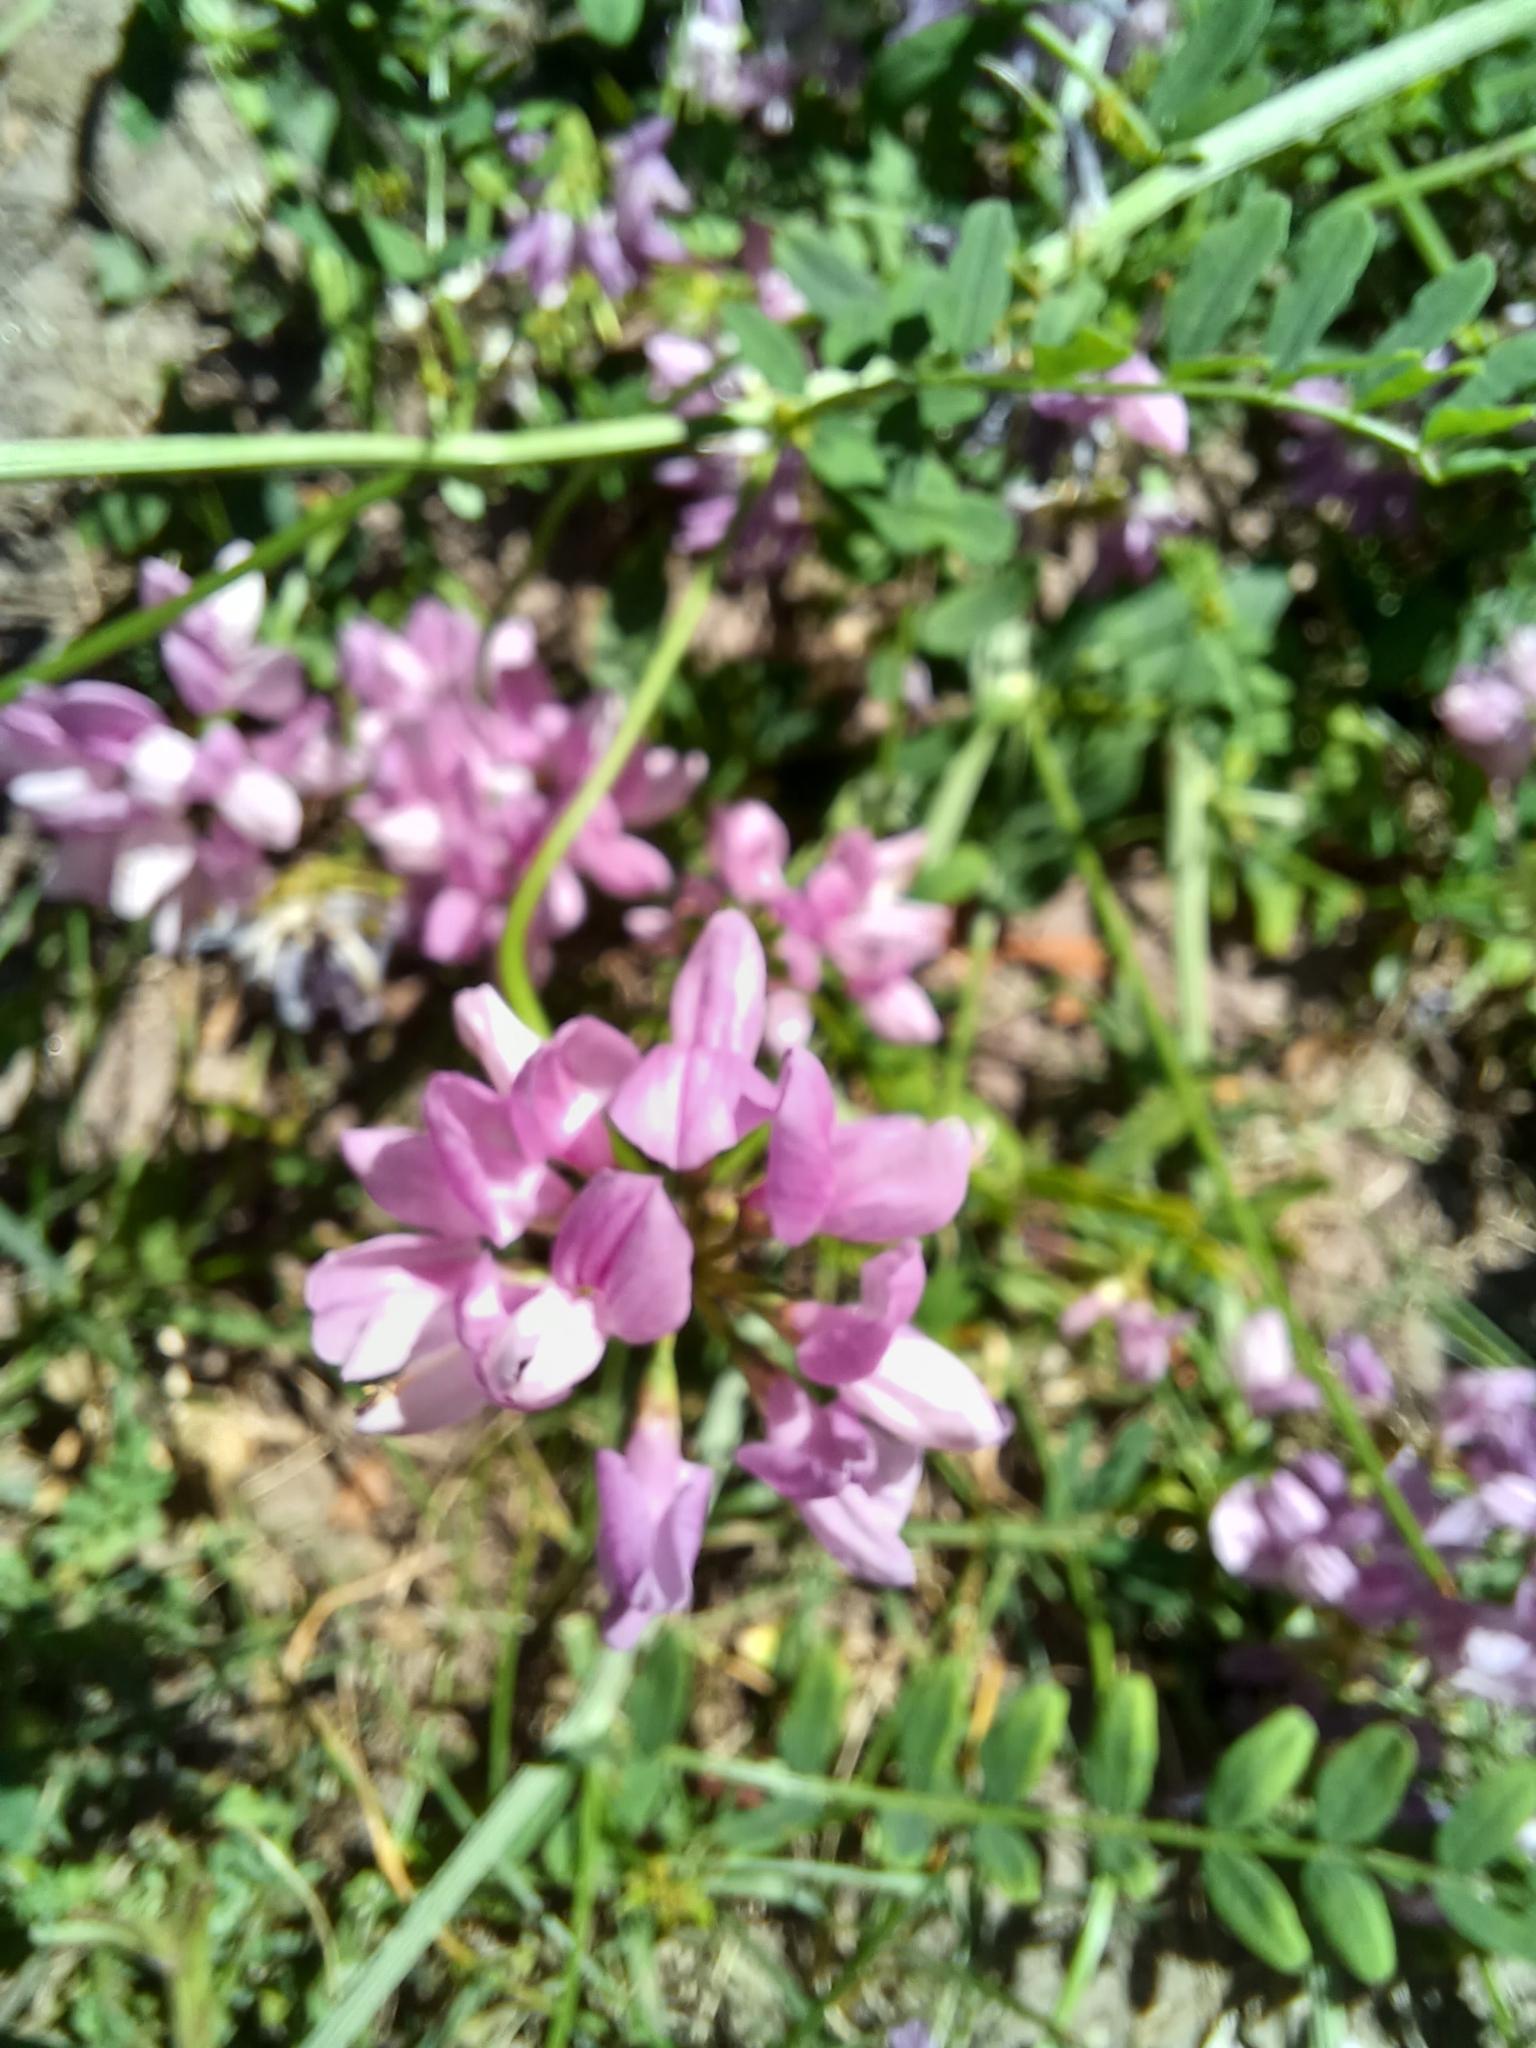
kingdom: Plantae
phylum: Tracheophyta
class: Magnoliopsida
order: Fabales
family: Fabaceae
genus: Coronilla
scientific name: Coronilla varia
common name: Crownvetch
